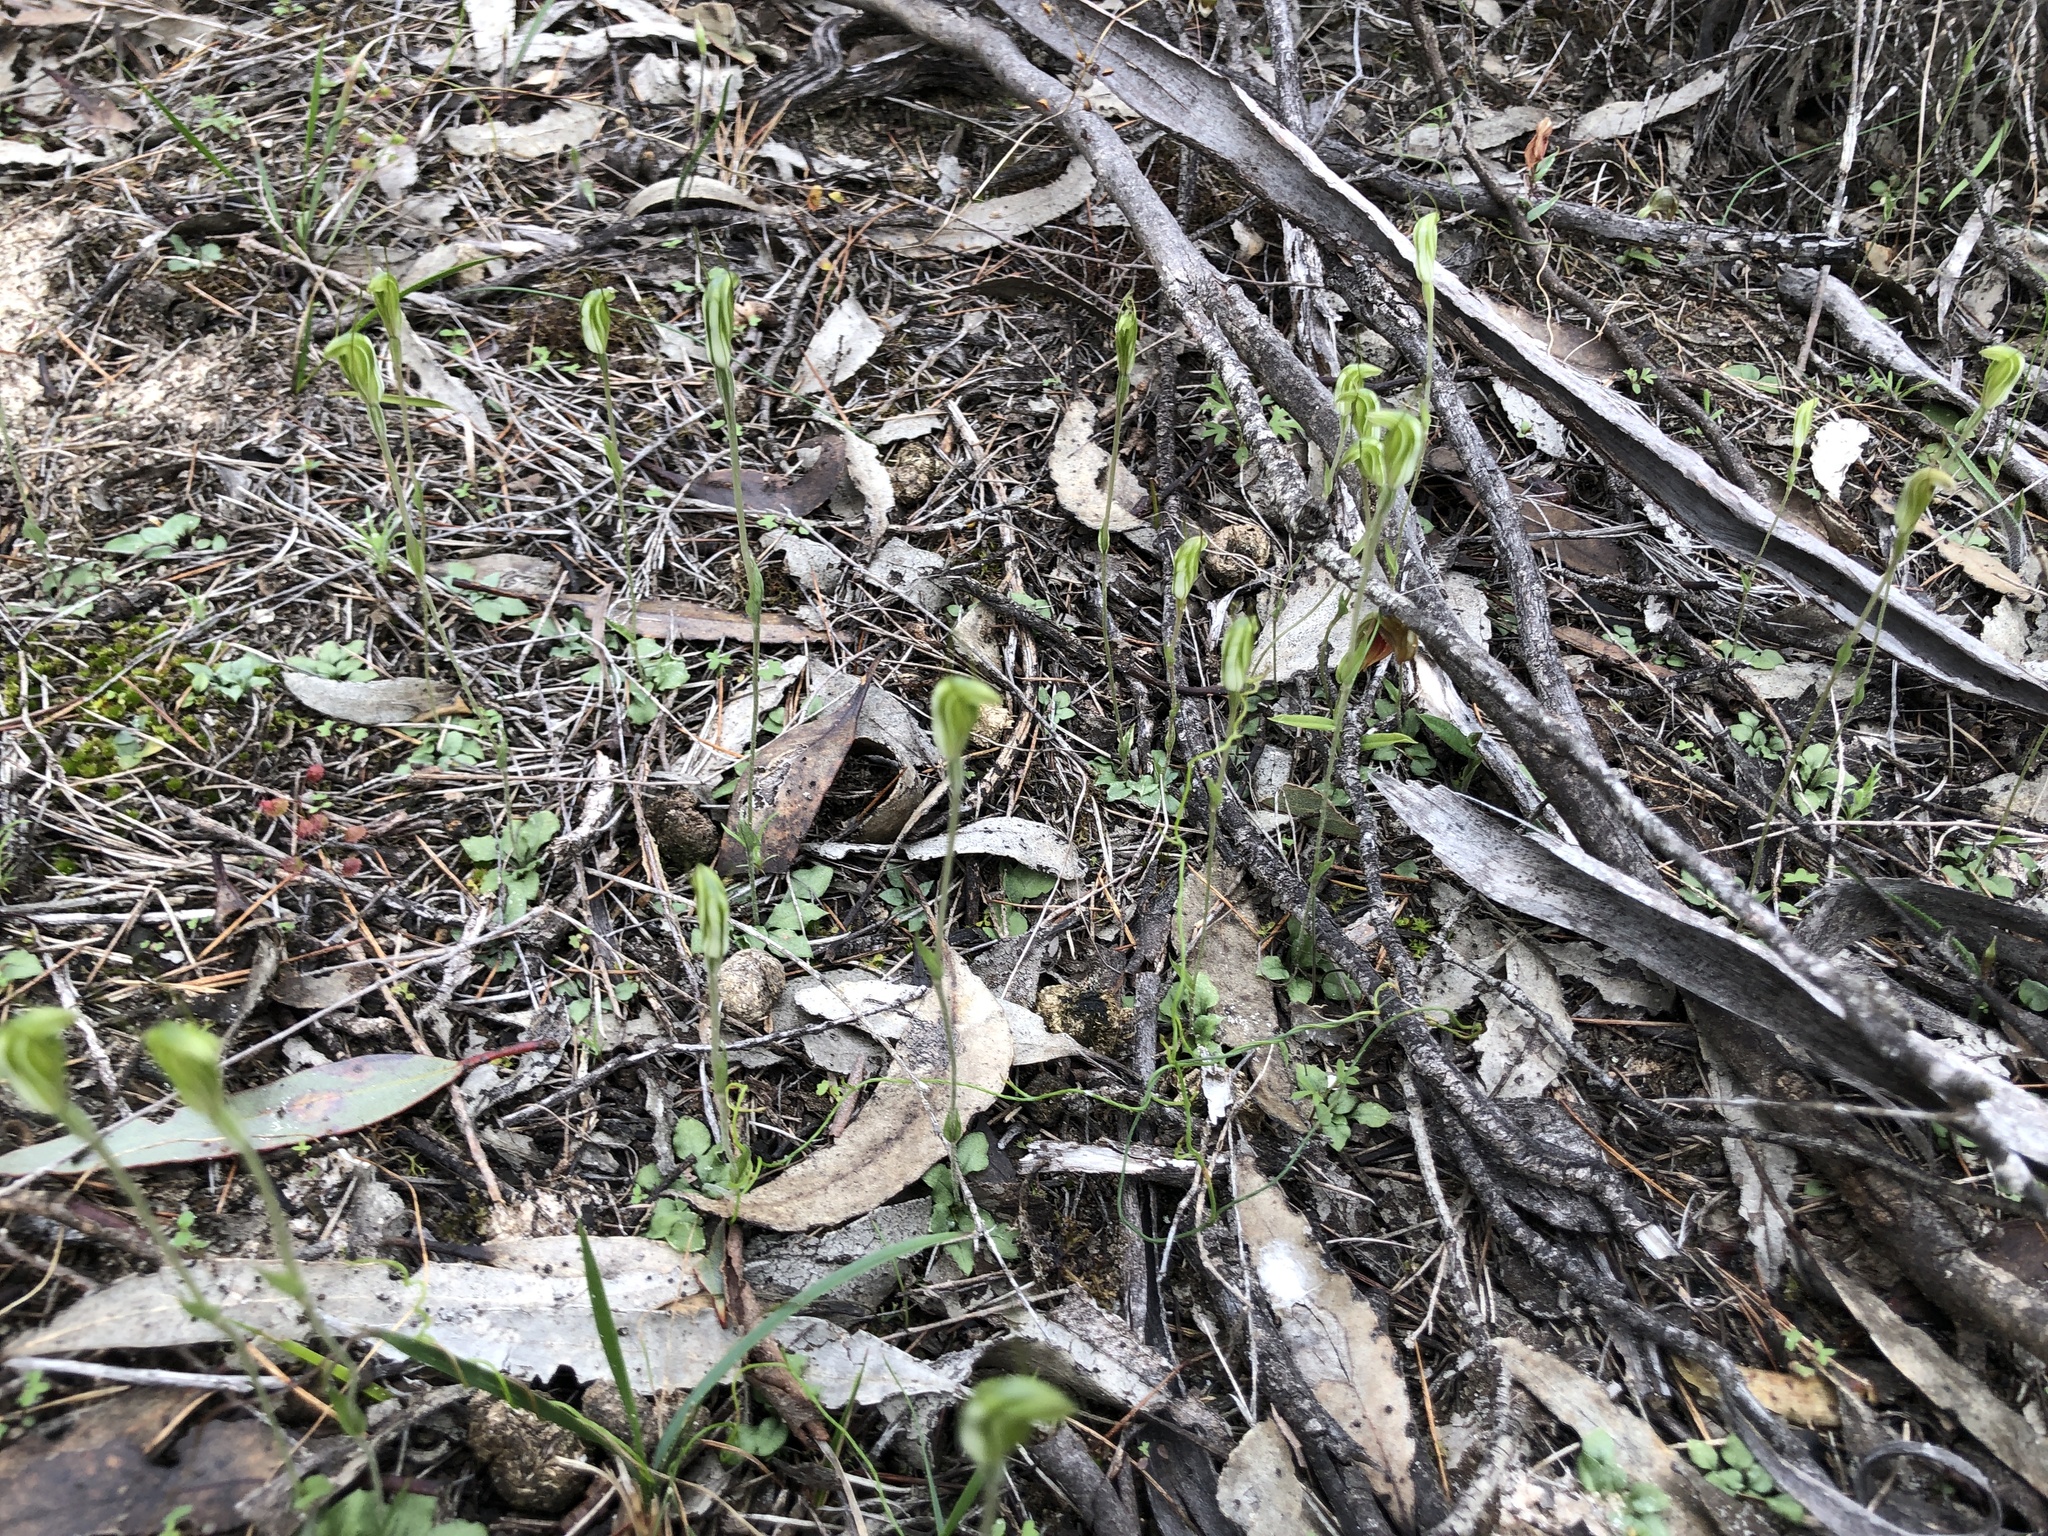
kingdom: Plantae
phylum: Tracheophyta
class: Liliopsida
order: Asparagales
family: Orchidaceae
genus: Pterostylis
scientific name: Pterostylis nana
